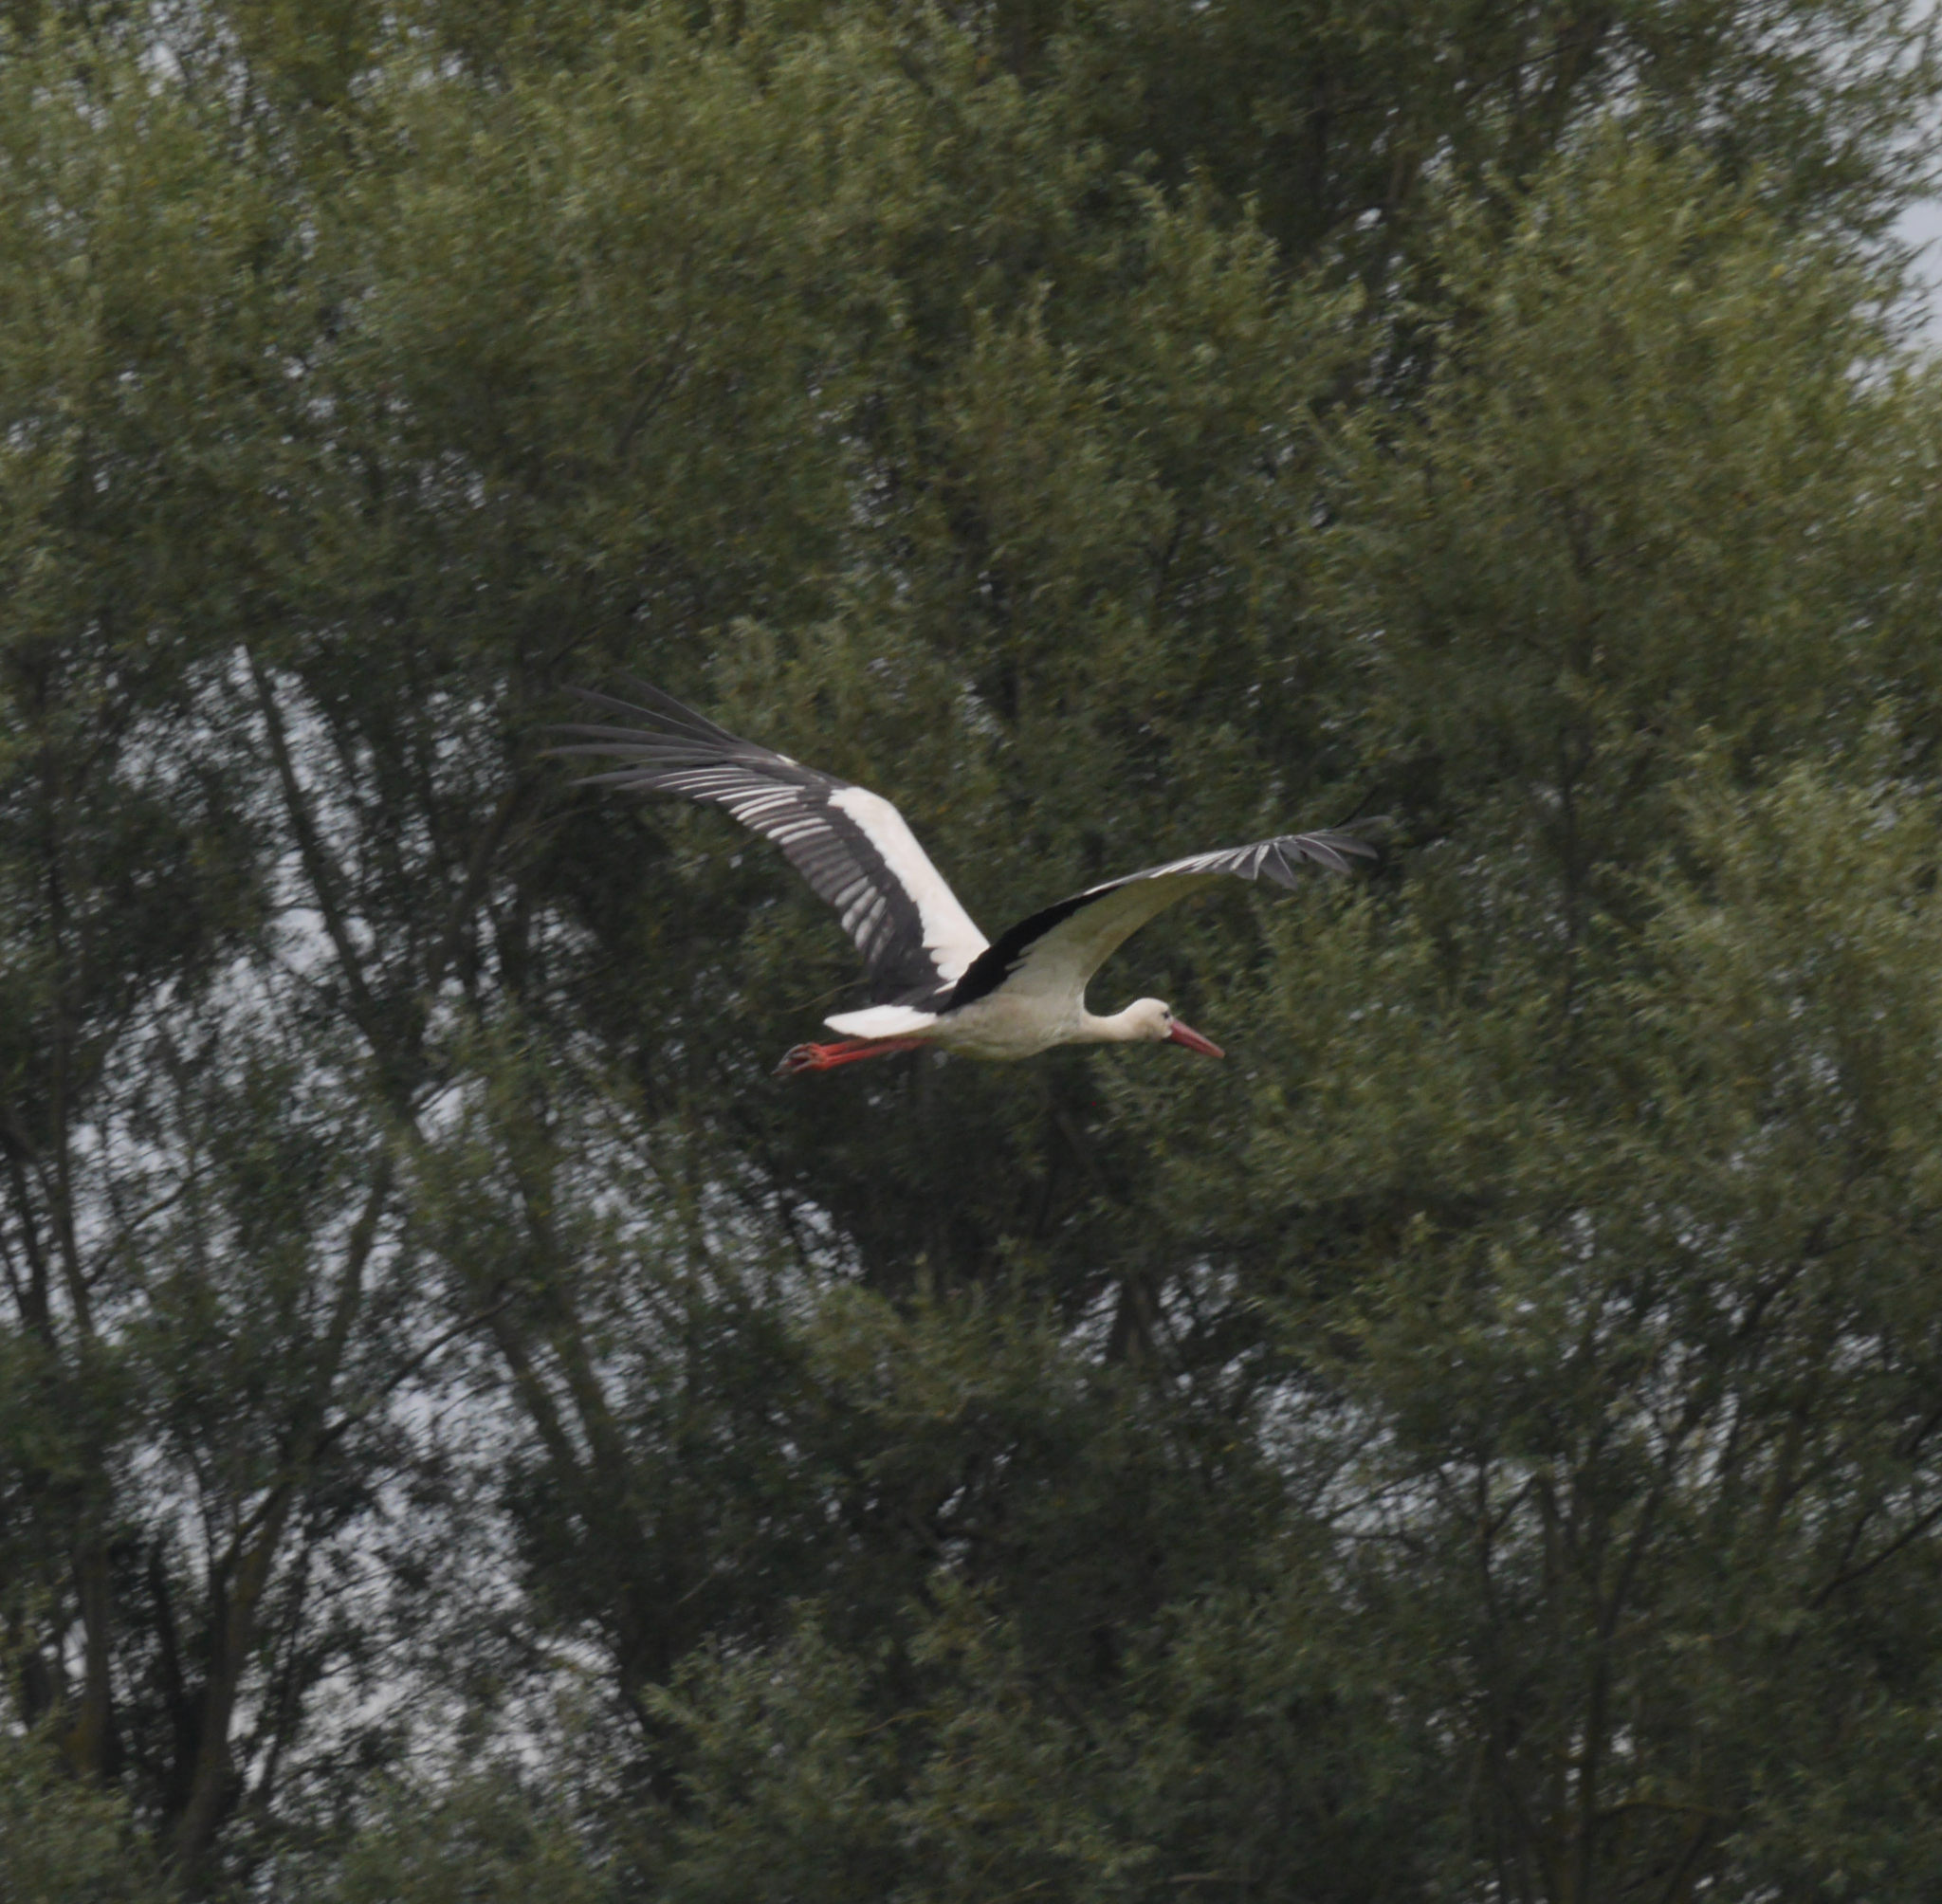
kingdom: Animalia
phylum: Chordata
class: Aves
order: Ciconiiformes
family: Ciconiidae
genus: Ciconia
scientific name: Ciconia ciconia
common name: White stork
